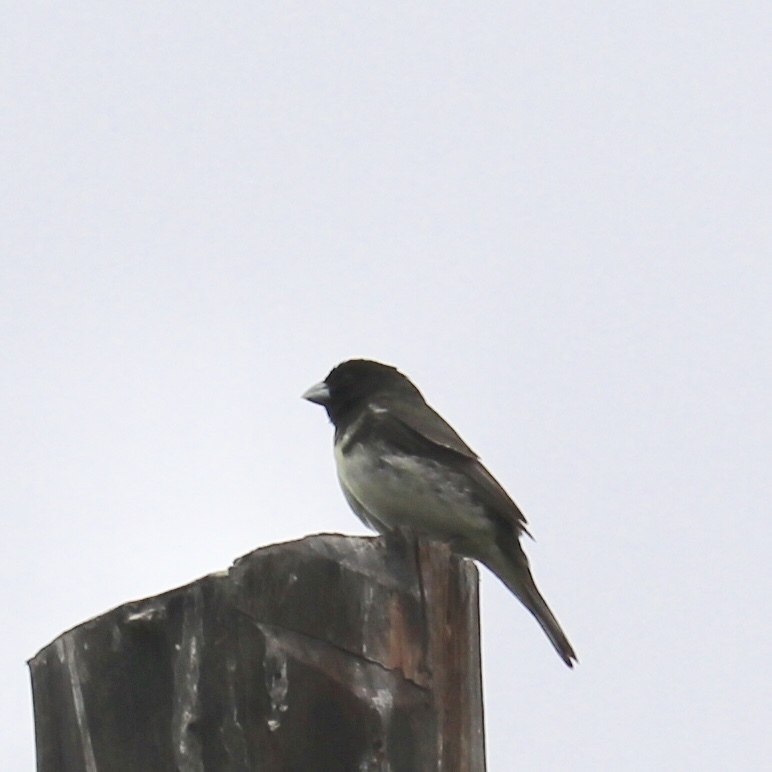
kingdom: Animalia
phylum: Chordata
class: Aves
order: Passeriformes
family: Thraupidae
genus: Sporophila
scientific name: Sporophila nigricollis
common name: Yellow-bellied seedeater
